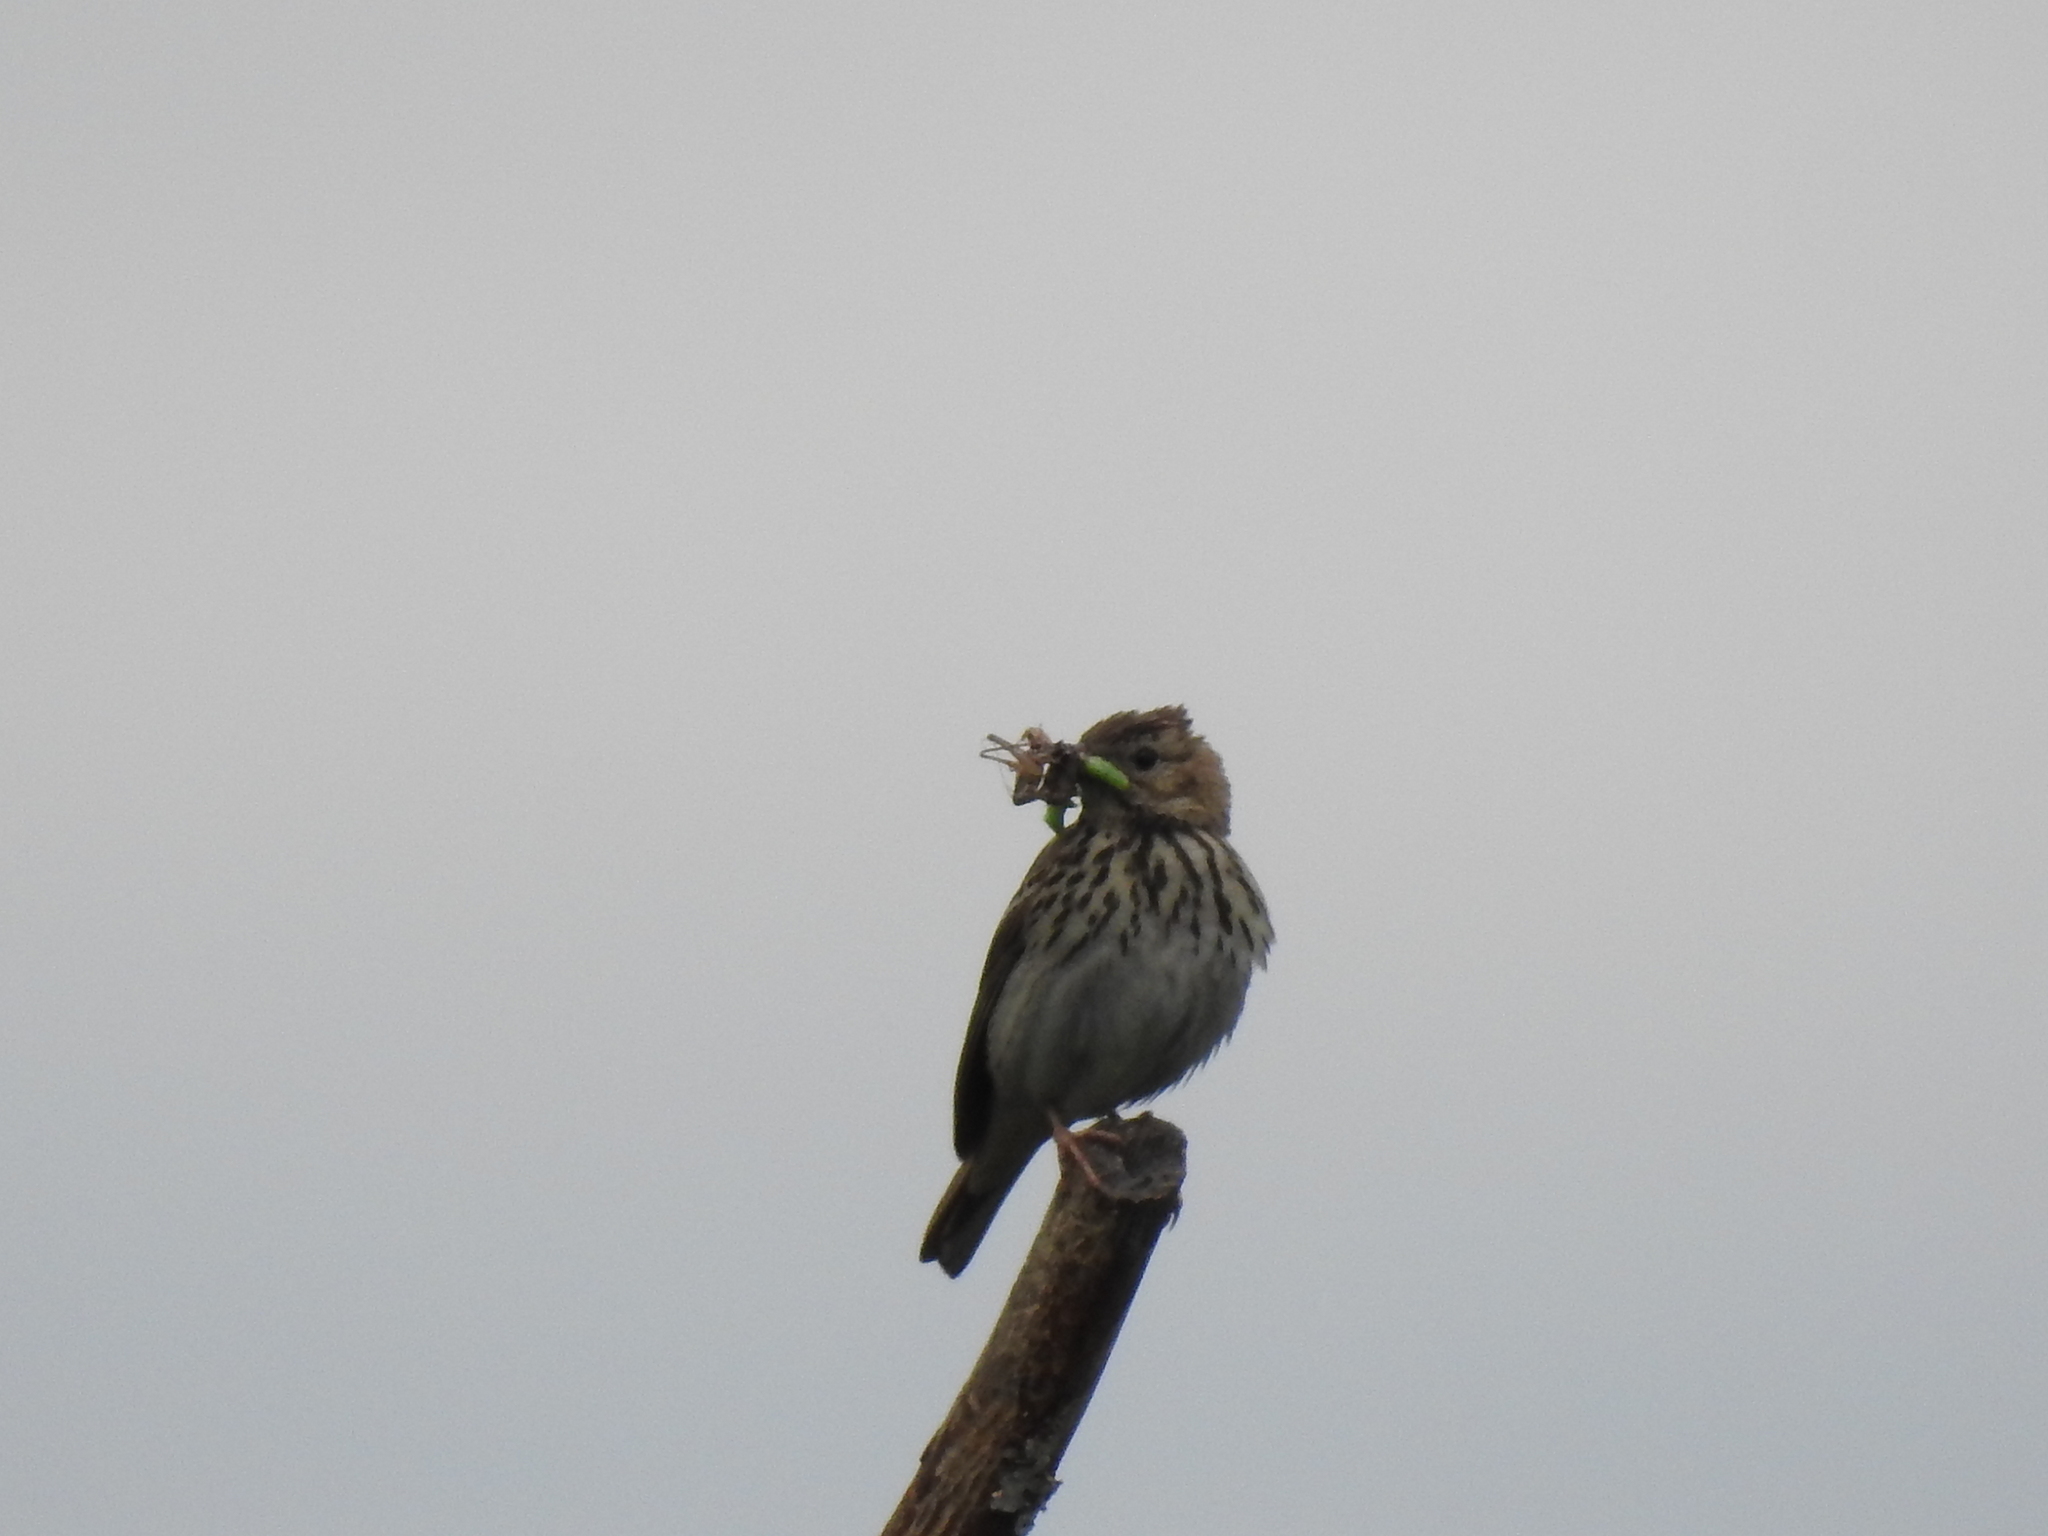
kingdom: Animalia
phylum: Chordata
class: Aves
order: Passeriformes
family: Motacillidae
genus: Anthus
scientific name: Anthus trivialis
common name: Tree pipit
